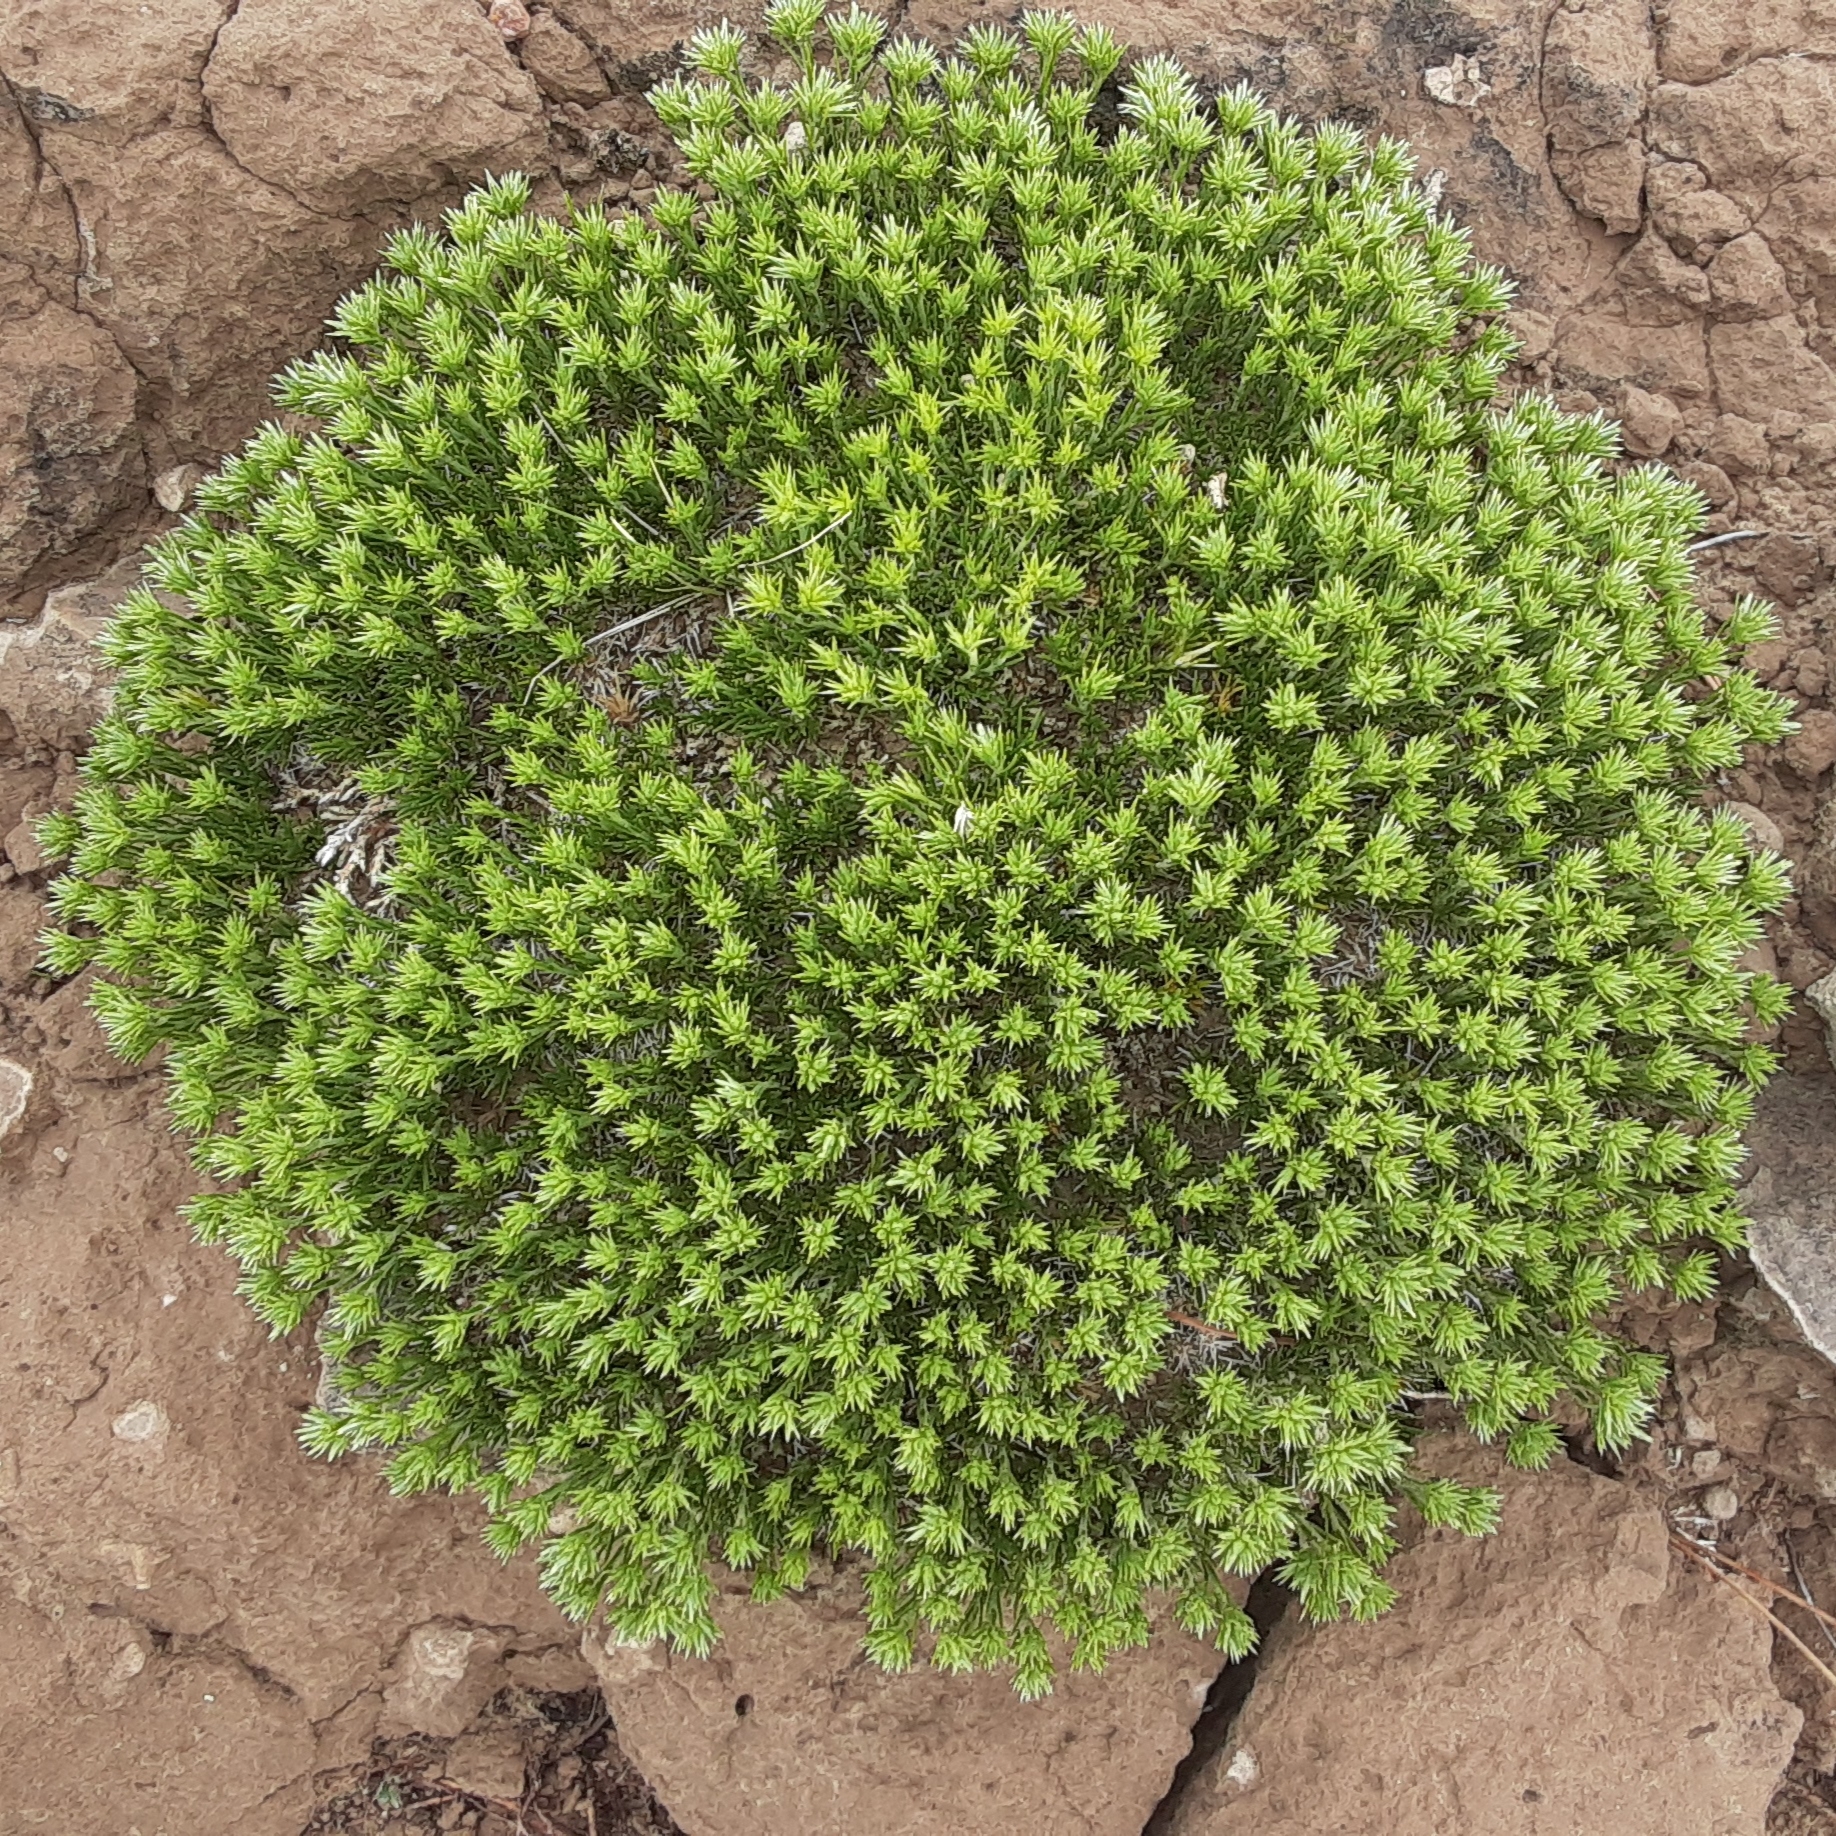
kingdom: Plantae
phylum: Tracheophyta
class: Magnoliopsida
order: Caryophyllales
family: Caryophyllaceae
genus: Eremogone
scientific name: Eremogone hookeri
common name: Hooker's sandwort
